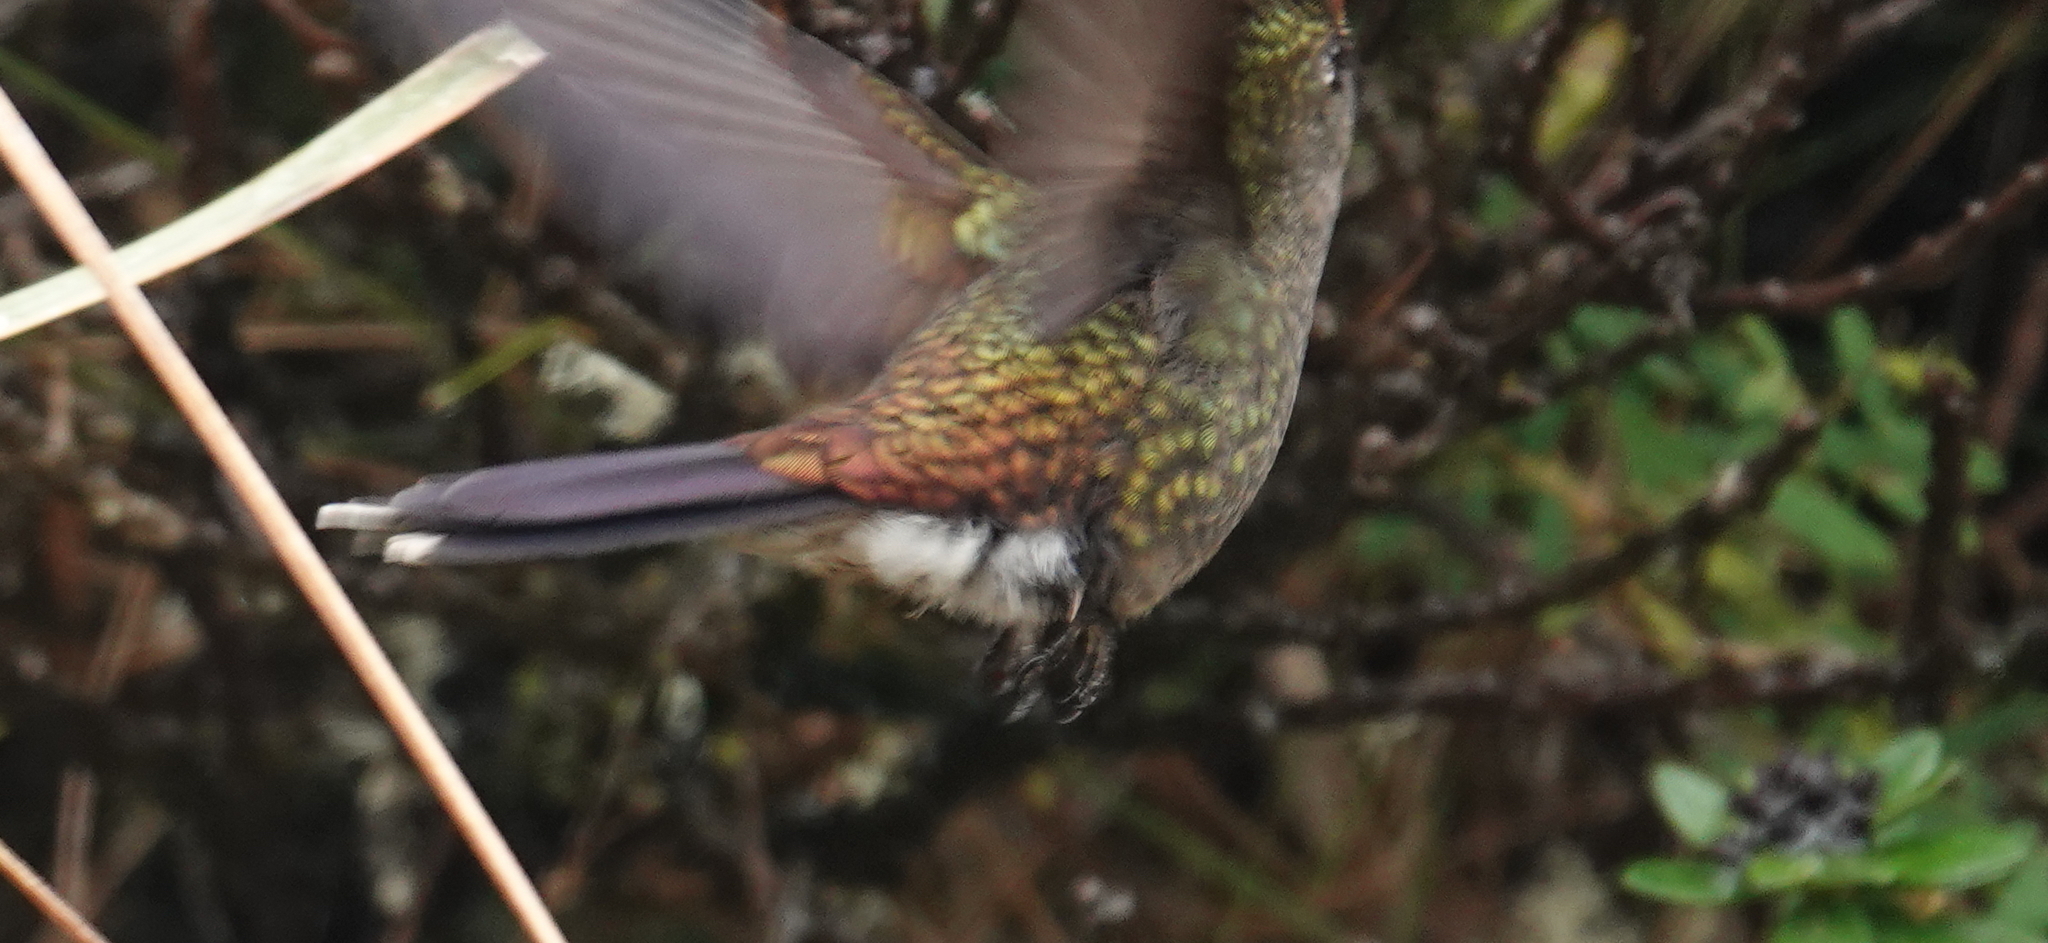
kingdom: Animalia
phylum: Chordata
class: Aves
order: Apodiformes
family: Trochilidae
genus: Chalcostigma
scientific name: Chalcostigma herrani
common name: Rainbow-bearded thornbill
